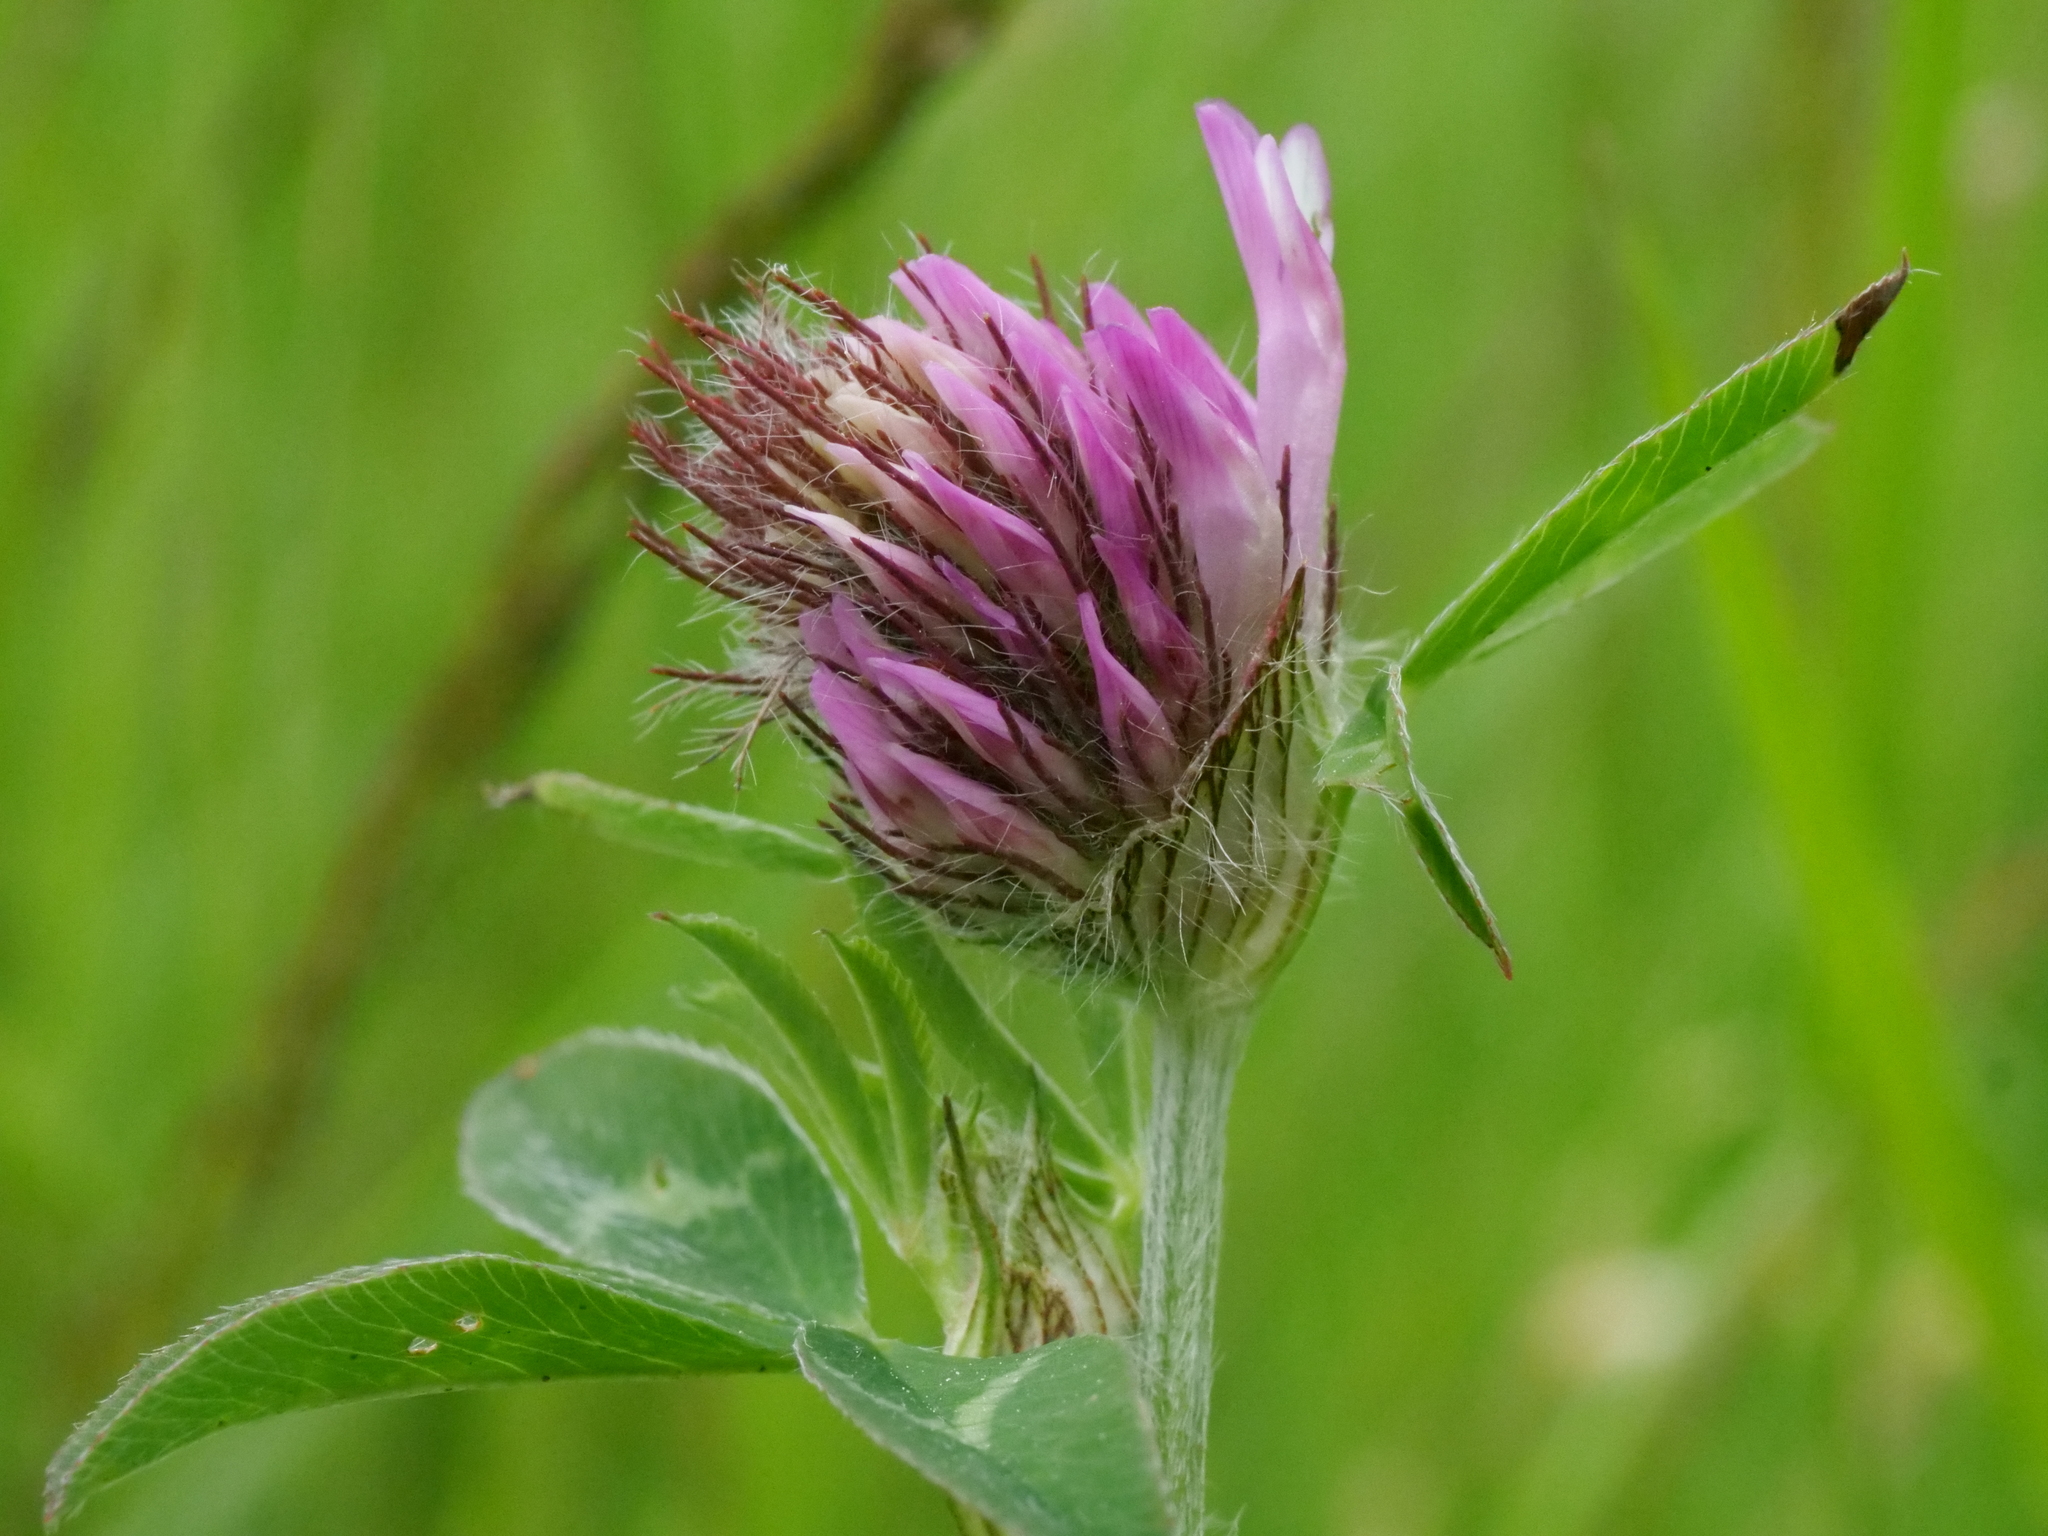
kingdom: Plantae
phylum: Tracheophyta
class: Magnoliopsida
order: Fabales
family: Fabaceae
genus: Trifolium
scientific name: Trifolium pratense
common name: Red clover
